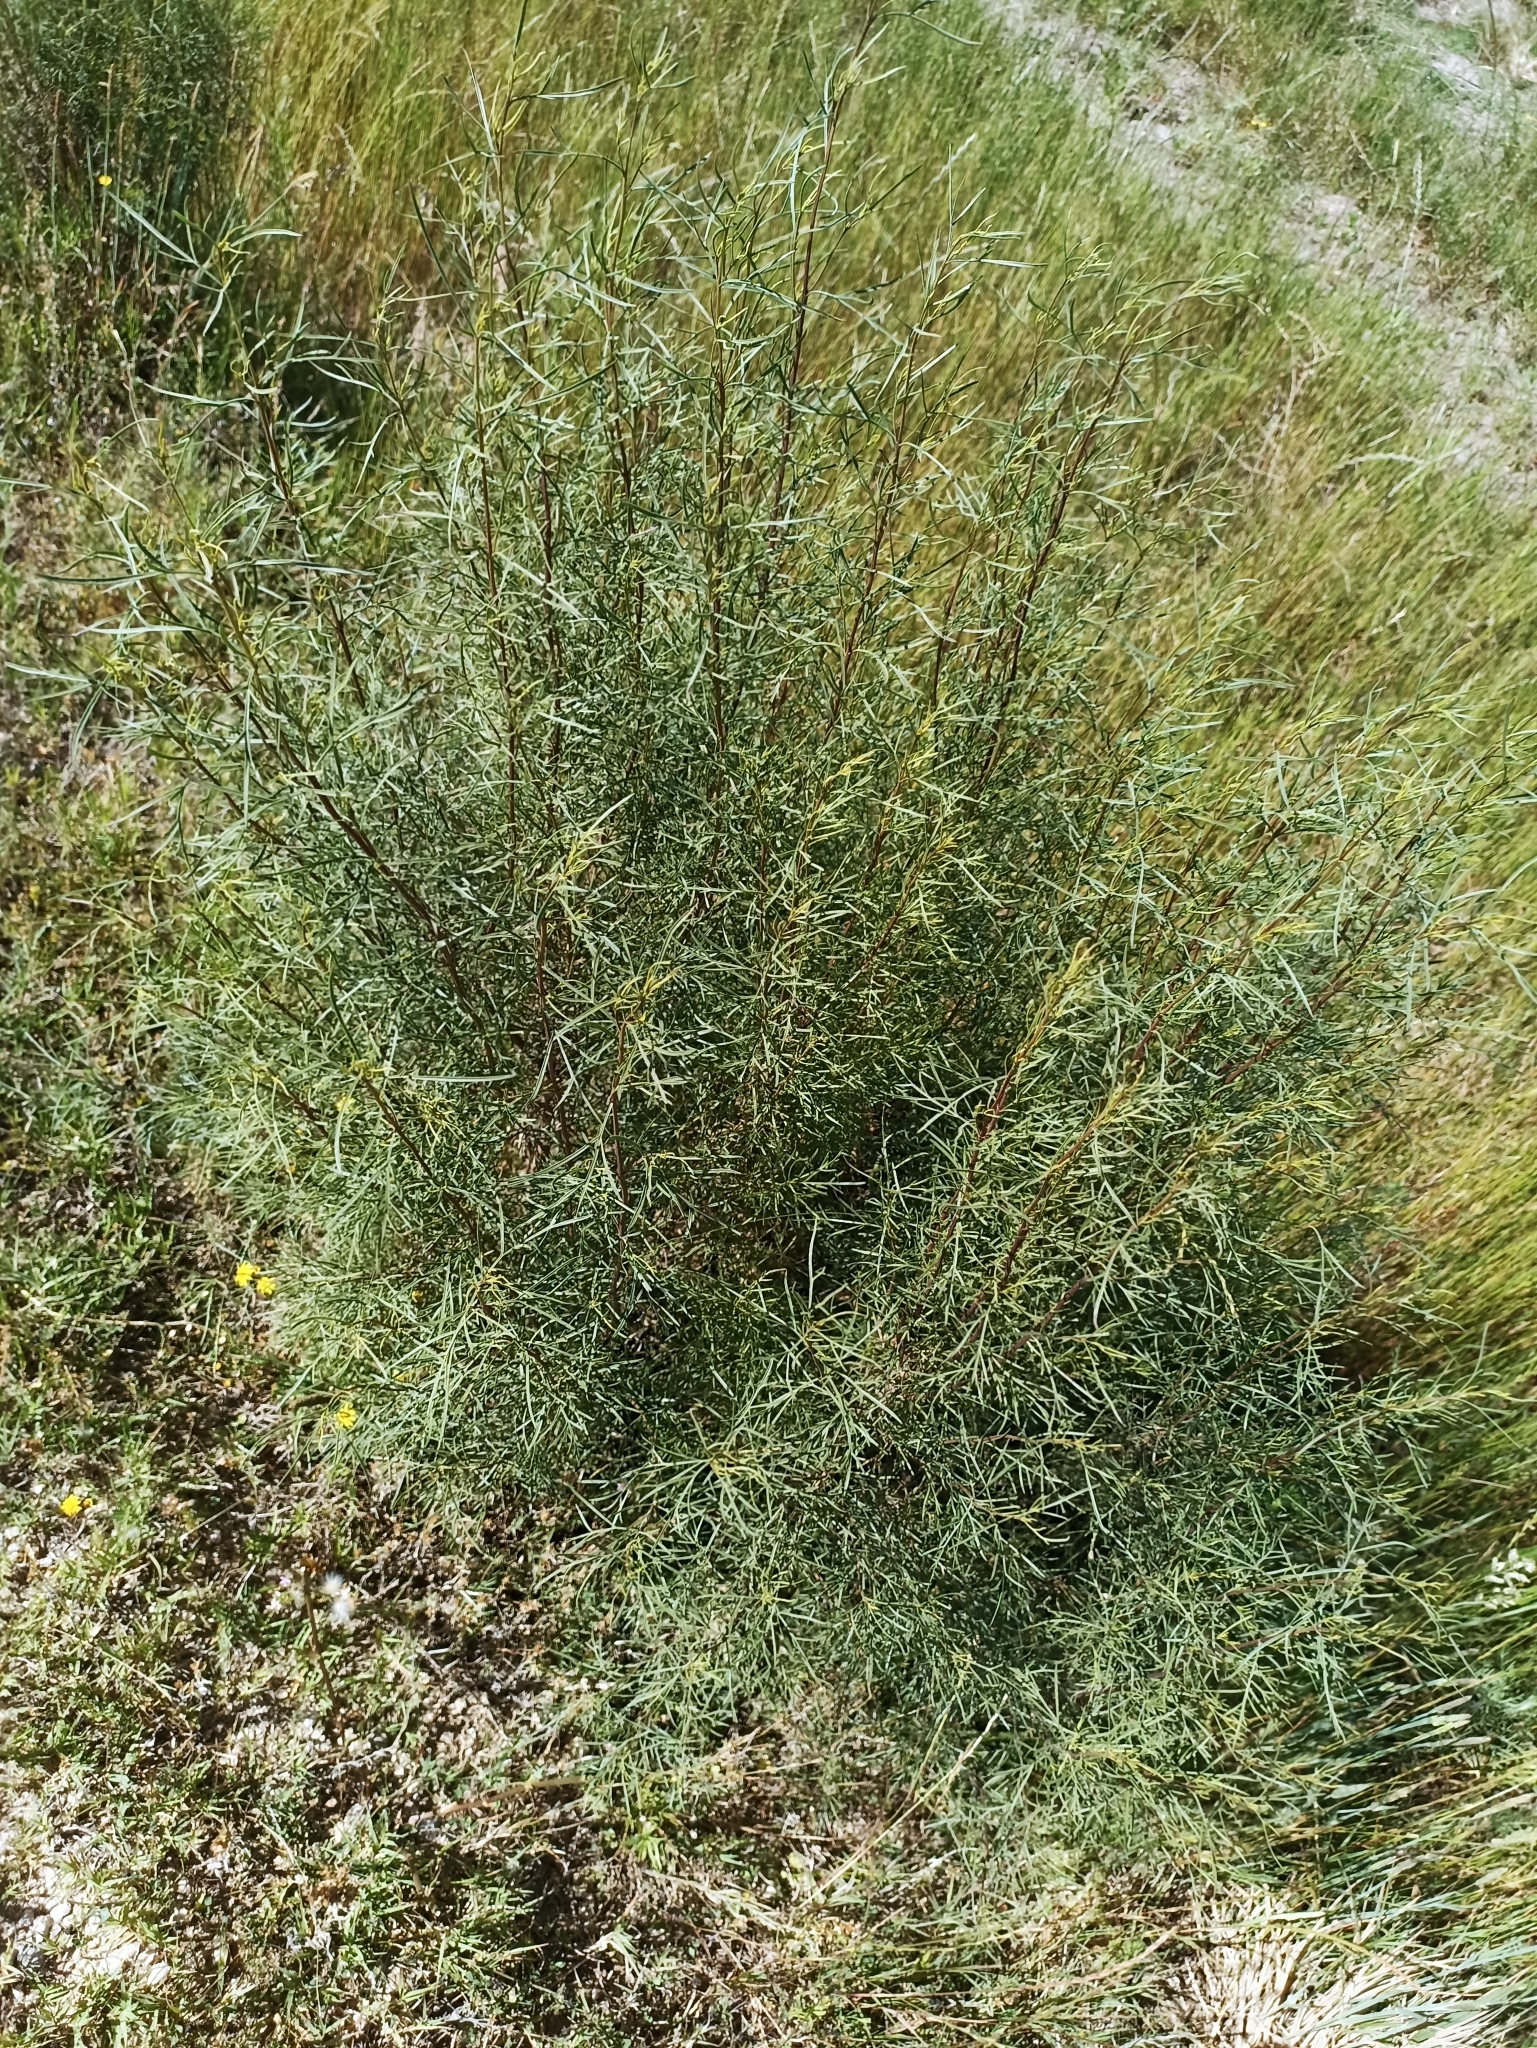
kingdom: Plantae
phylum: Tracheophyta
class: Magnoliopsida
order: Asterales
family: Asteraceae
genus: Acanthostyles
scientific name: Acanthostyles buniifolius
